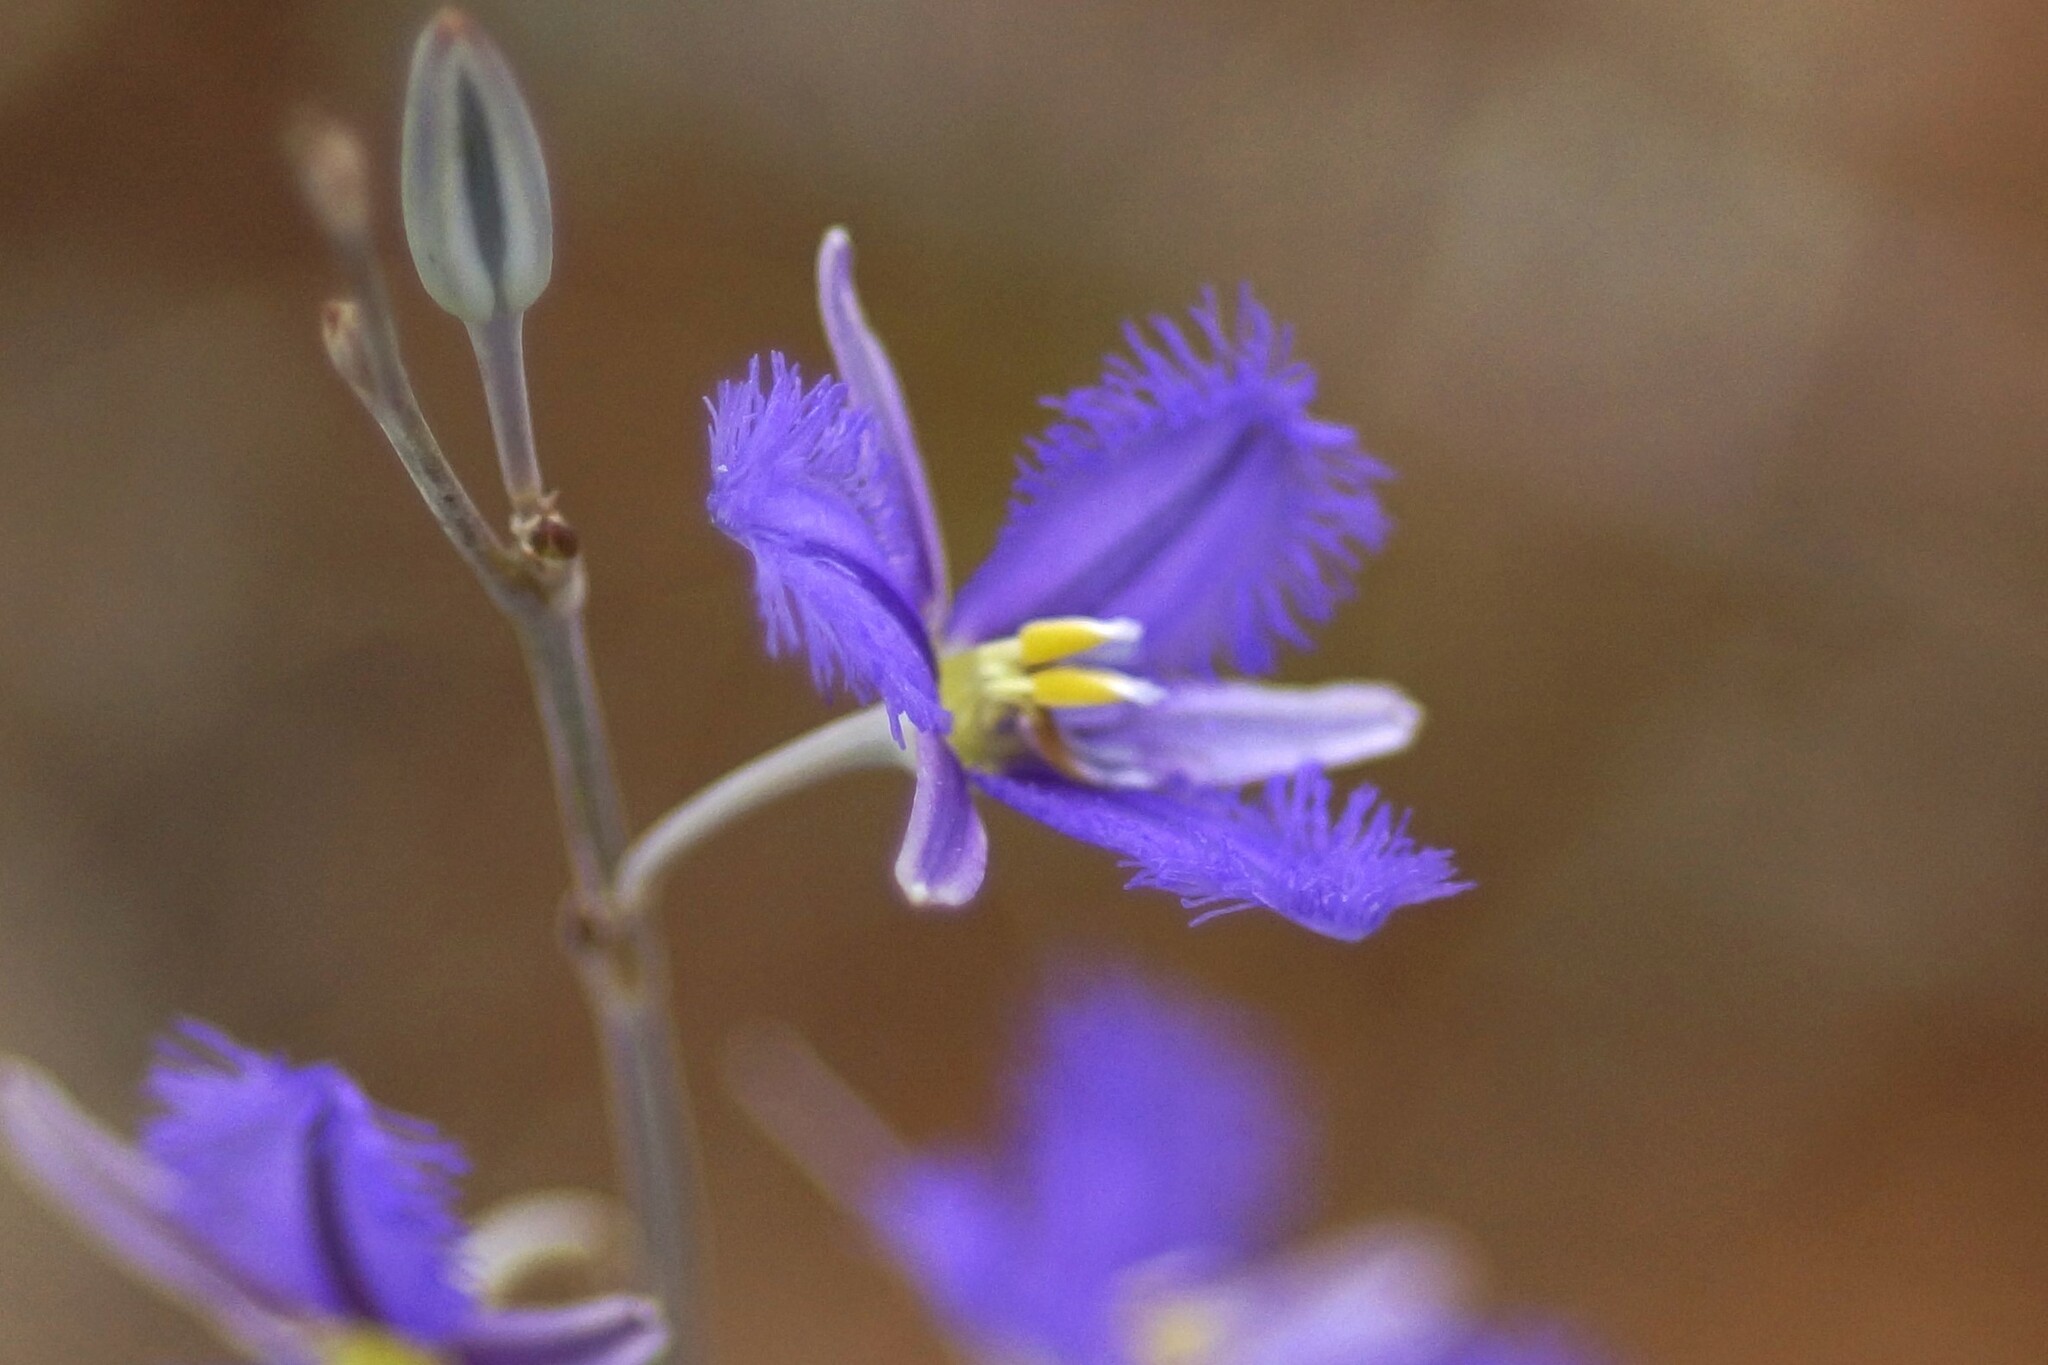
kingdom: Plantae
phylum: Tracheophyta
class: Liliopsida
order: Asparagales
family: Asparagaceae
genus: Thysanotus
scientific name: Thysanotus baueri
